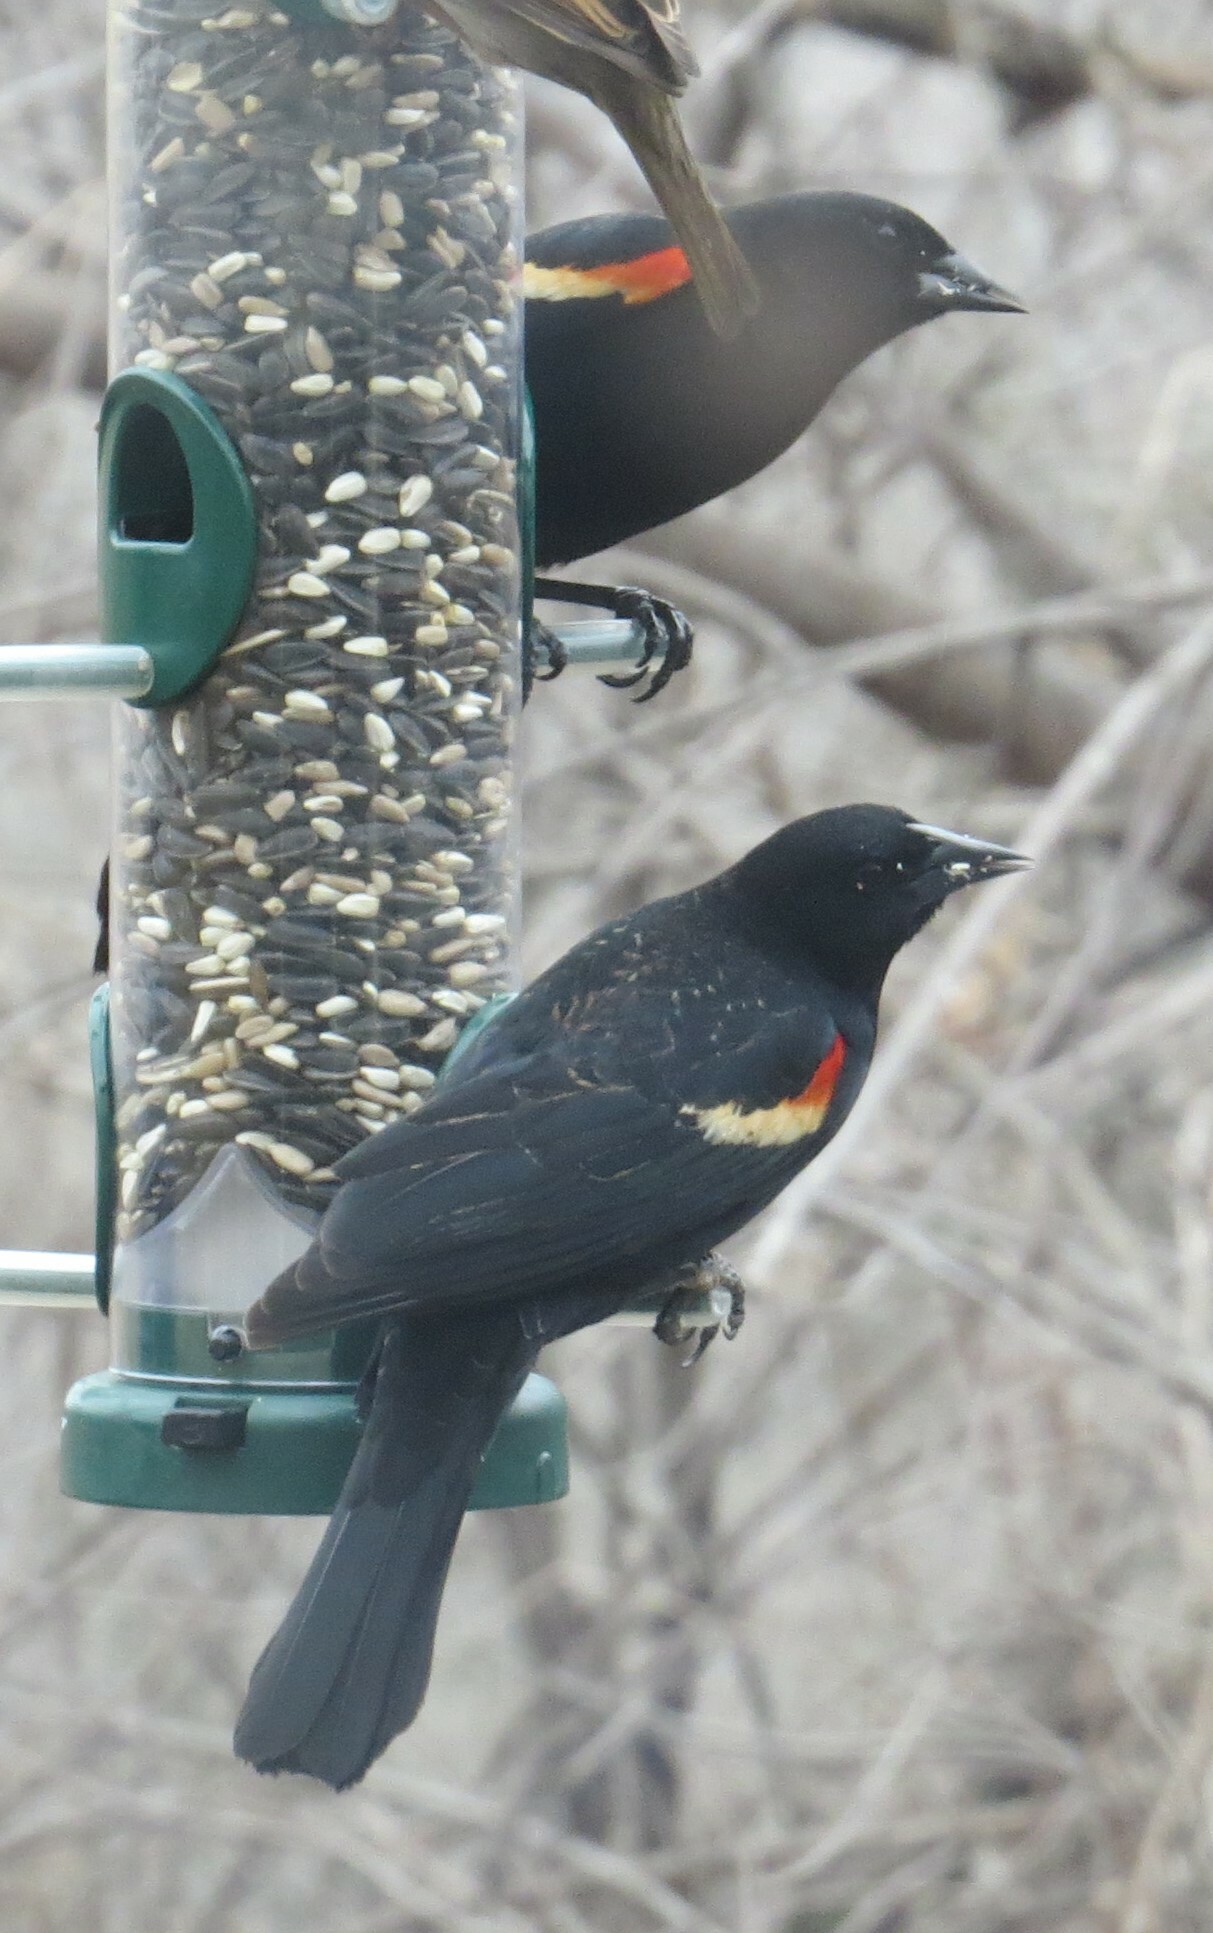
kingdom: Animalia
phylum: Chordata
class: Aves
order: Passeriformes
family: Icteridae
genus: Agelaius
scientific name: Agelaius phoeniceus
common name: Red-winged blackbird
